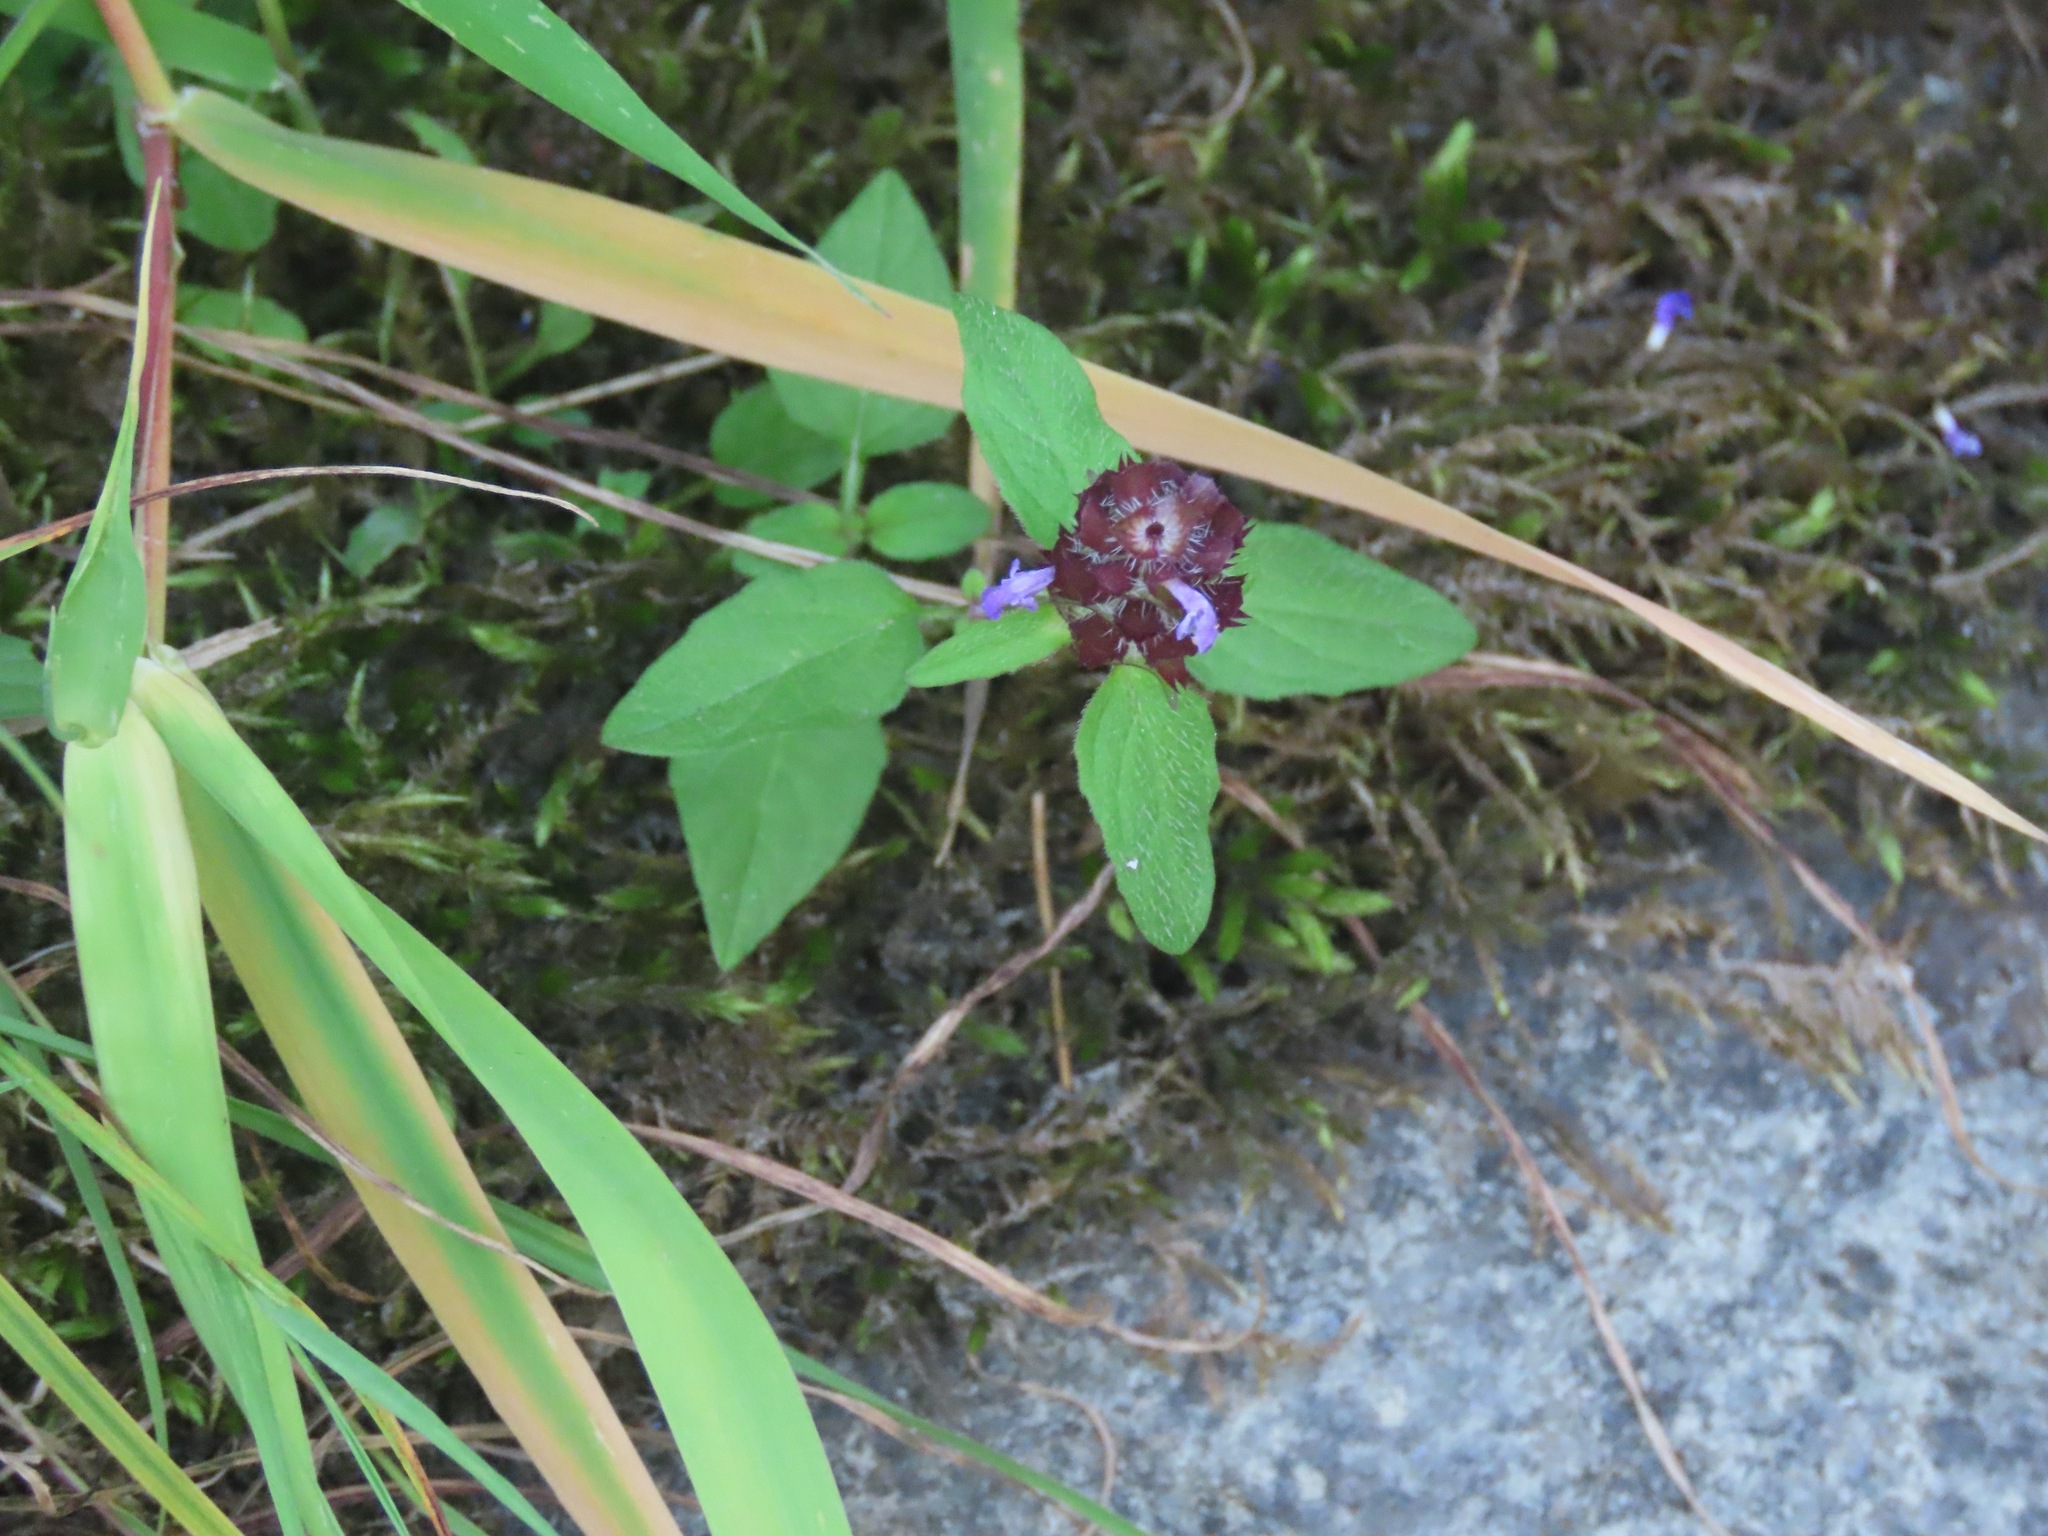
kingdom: Plantae
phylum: Tracheophyta
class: Magnoliopsida
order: Lamiales
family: Lamiaceae
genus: Prunella
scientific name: Prunella vulgaris
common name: Heal-all
